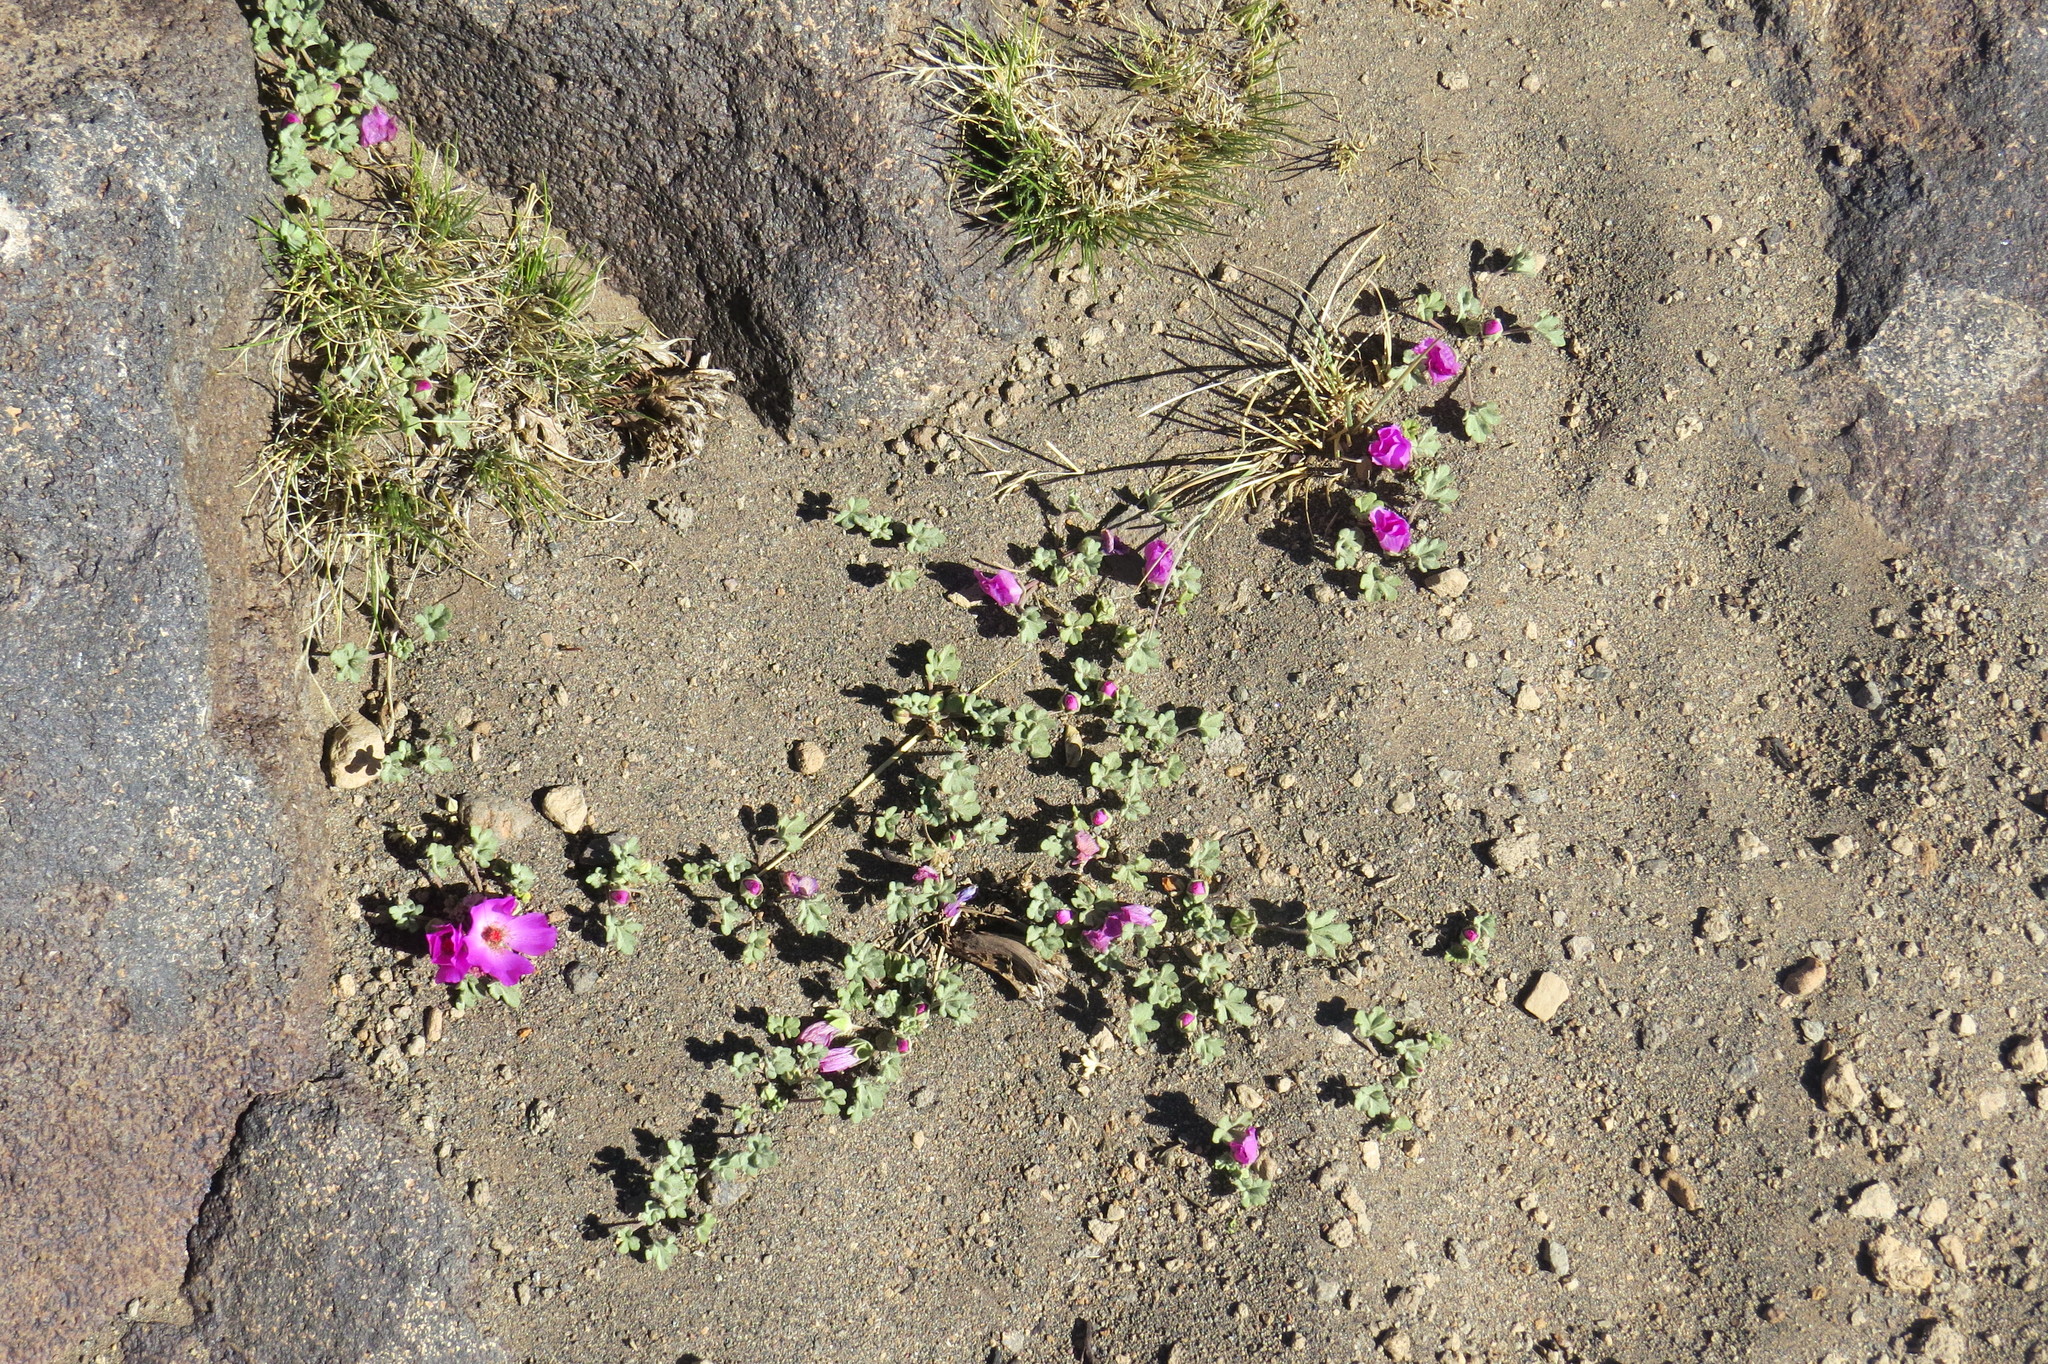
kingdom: Plantae
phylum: Tracheophyta
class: Magnoliopsida
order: Malvales
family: Malvaceae
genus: Tarasa
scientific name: Tarasa humilis
